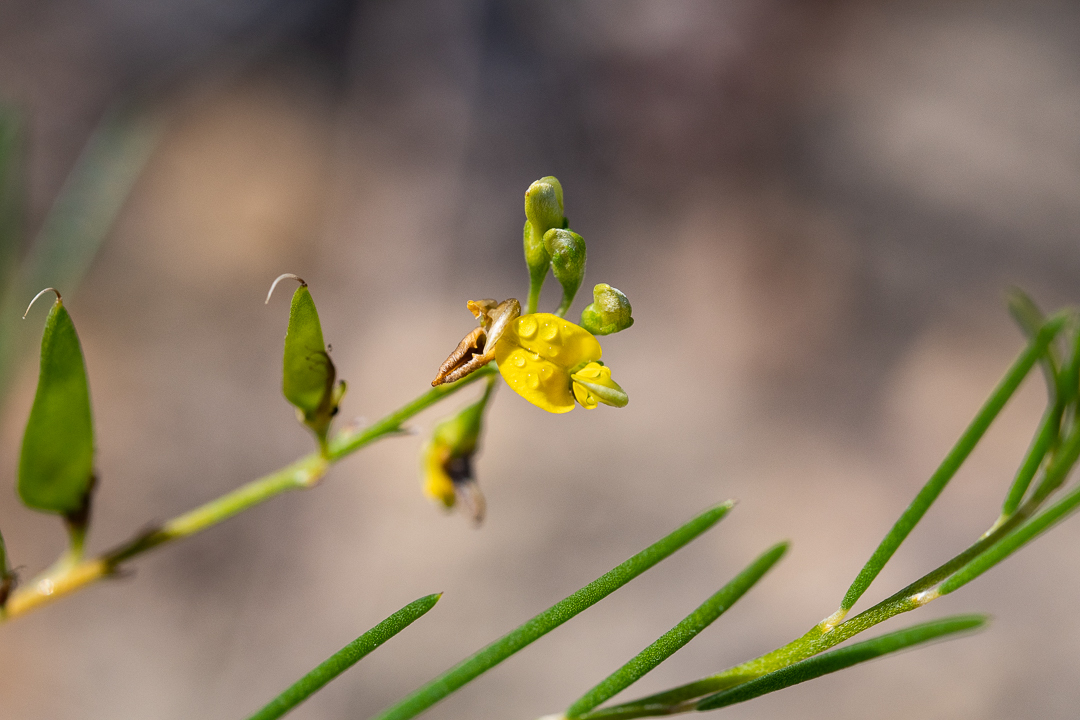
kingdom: Plantae
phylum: Tracheophyta
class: Magnoliopsida
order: Fabales
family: Fabaceae
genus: Aspalathus
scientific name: Aspalathus linearis
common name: Rooibos-tea
